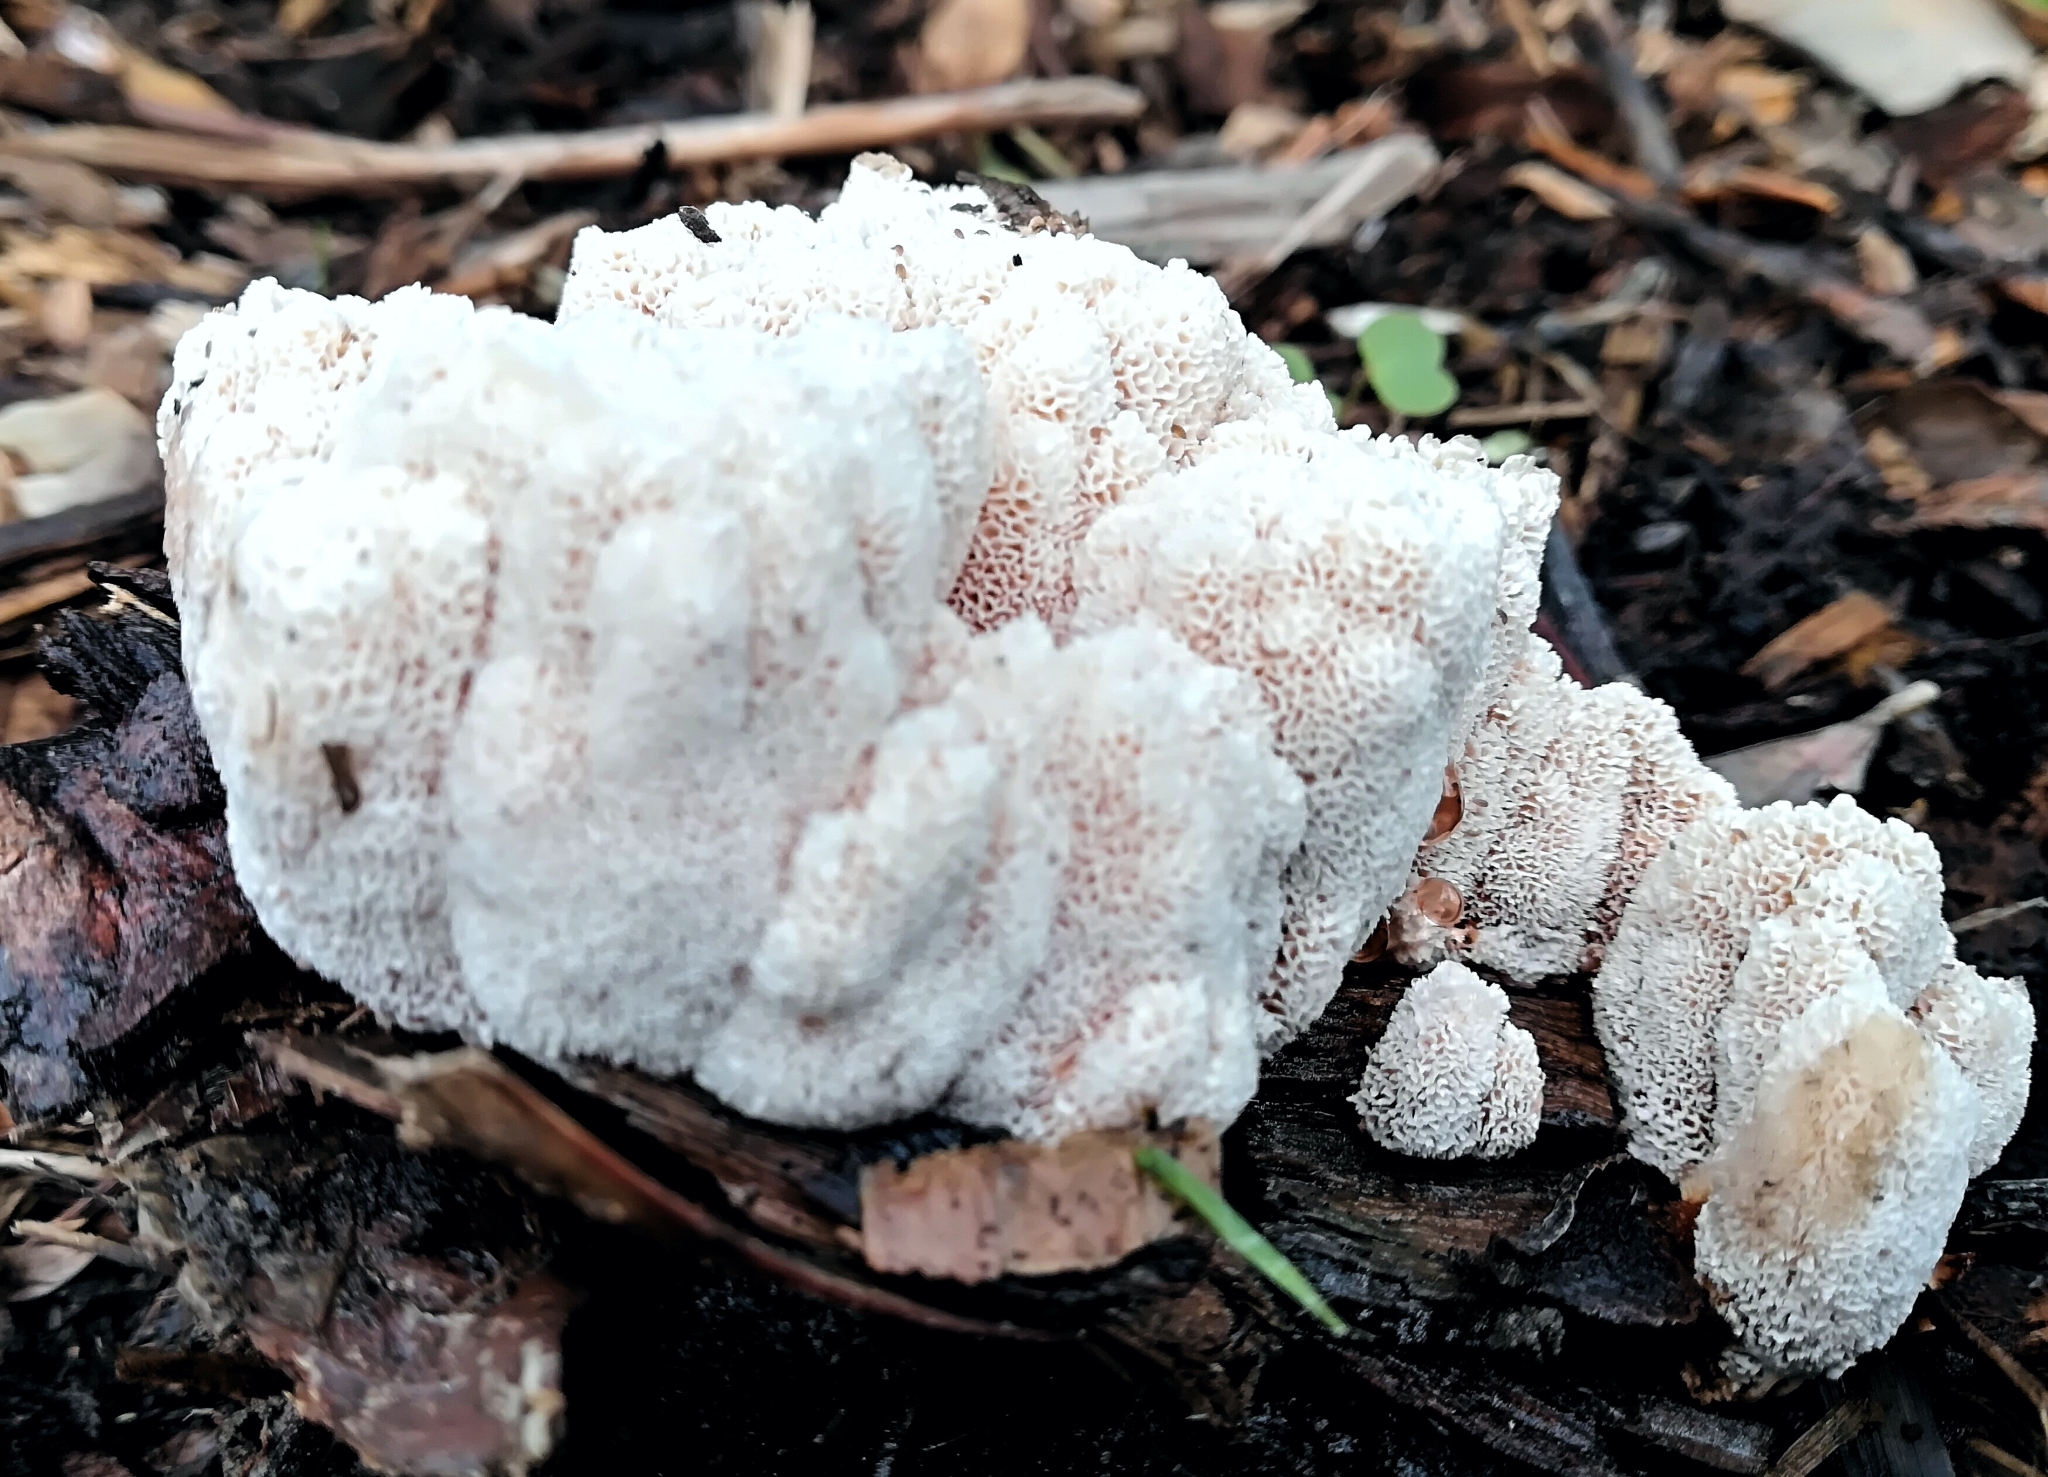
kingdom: Fungi
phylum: Basidiomycota
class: Agaricomycetes
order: Polyporales
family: Podoscyphaceae
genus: Abortiporus
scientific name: Abortiporus biennis
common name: Blushing rosette
